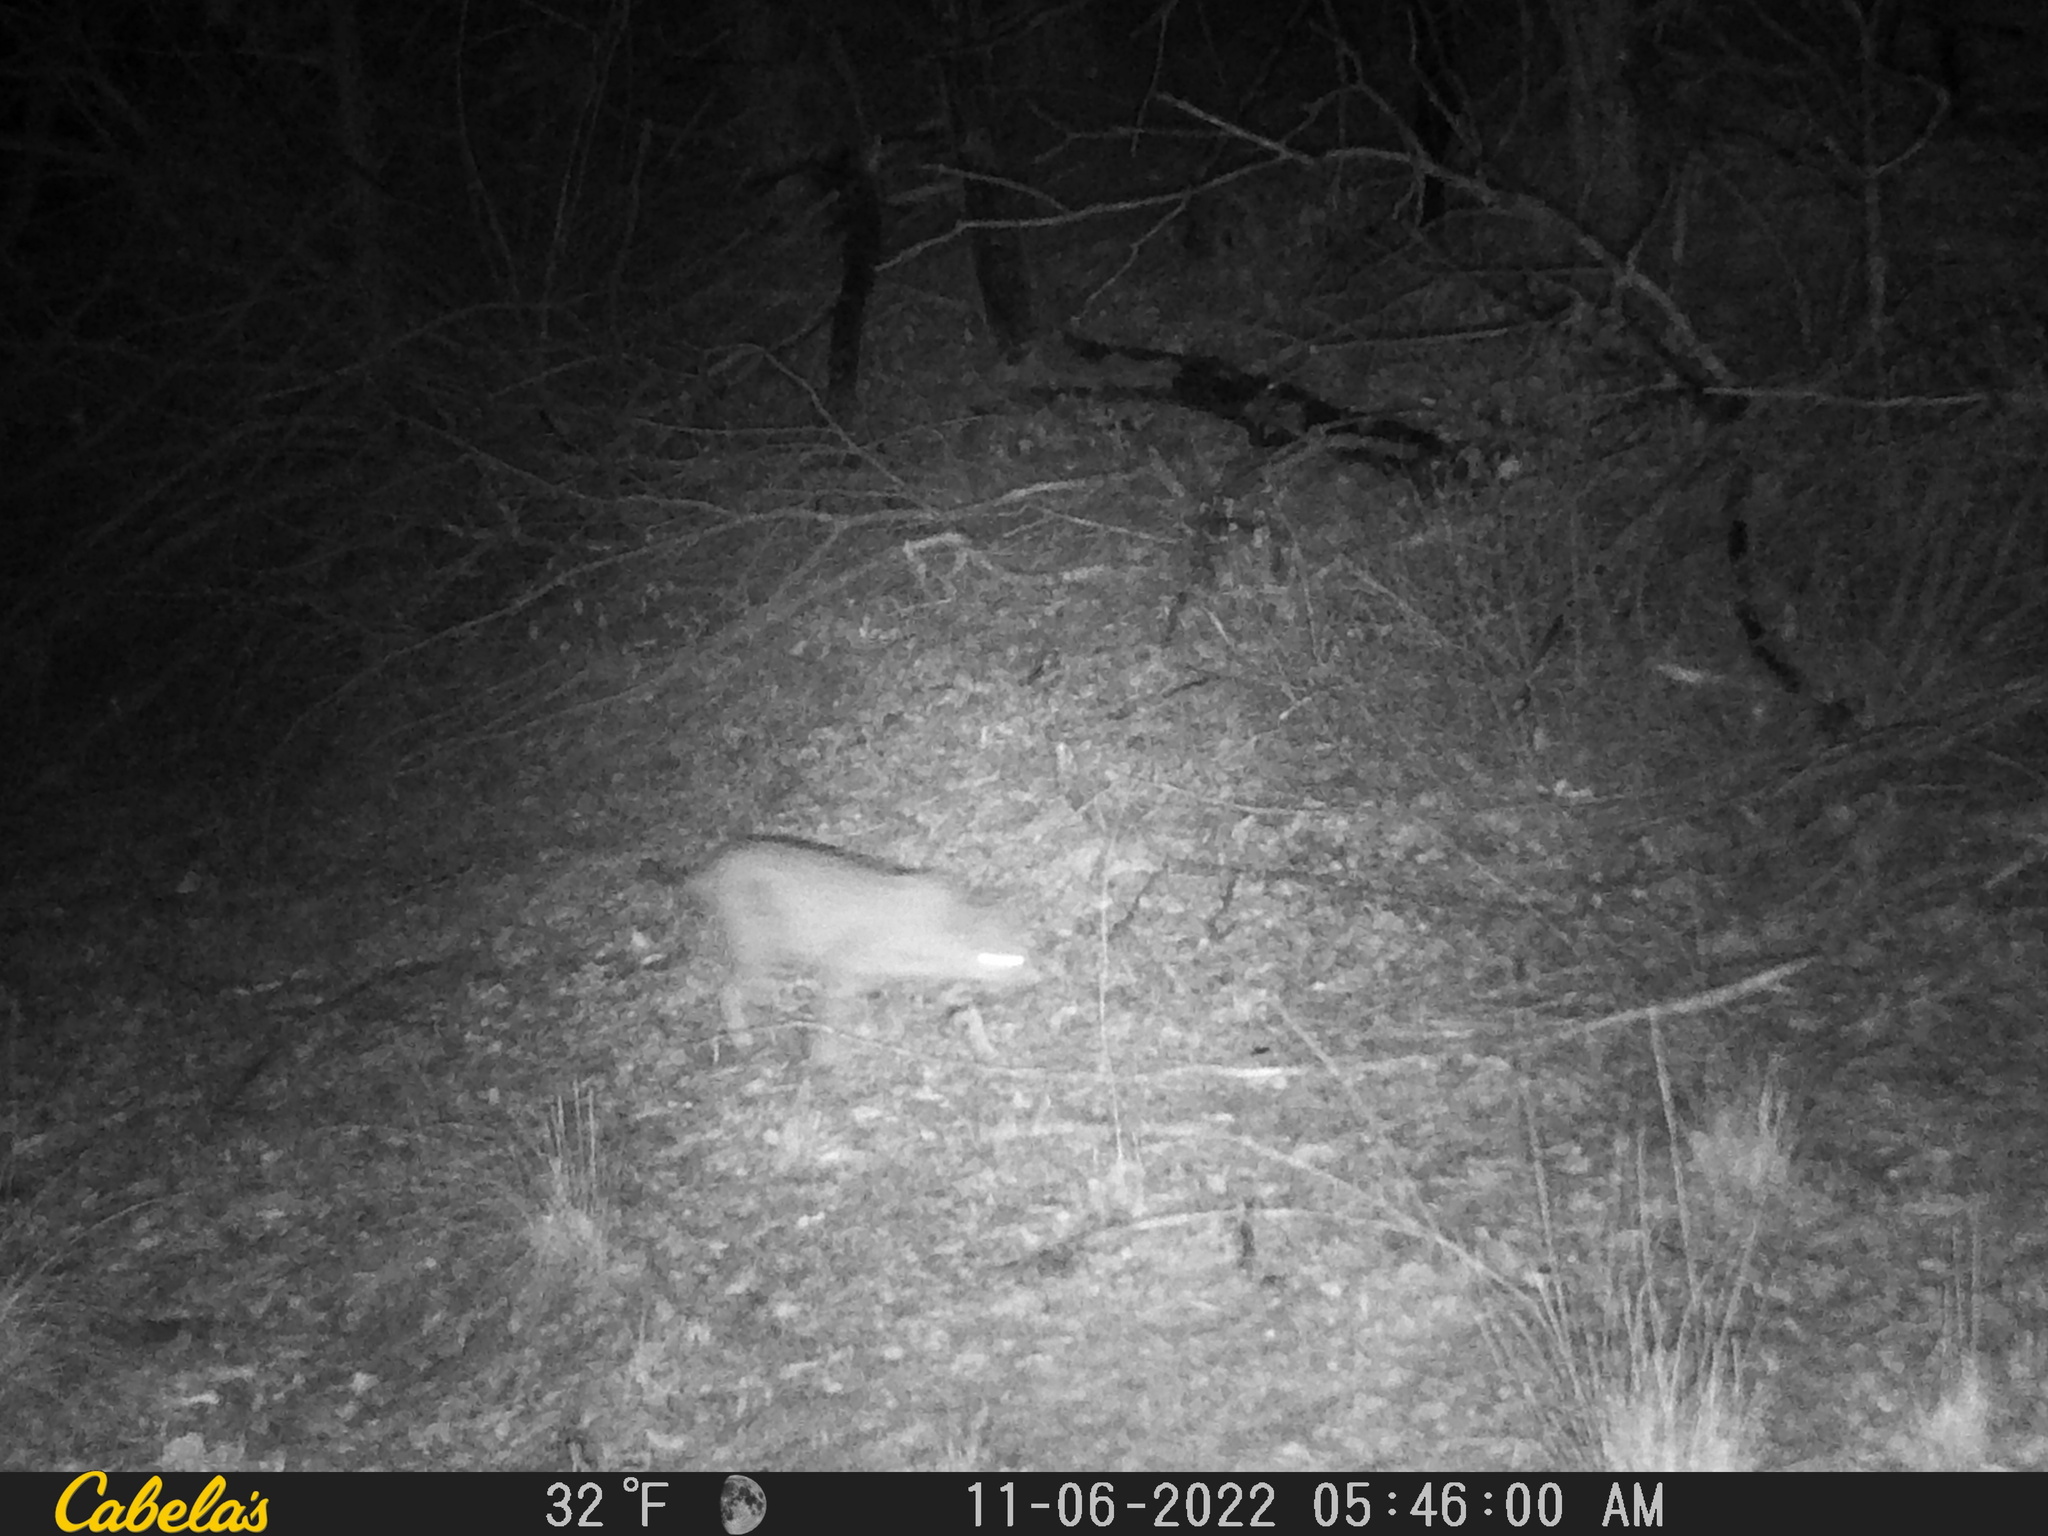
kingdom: Animalia
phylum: Chordata
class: Mammalia
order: Carnivora
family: Felidae
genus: Lynx
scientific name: Lynx rufus
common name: Bobcat
